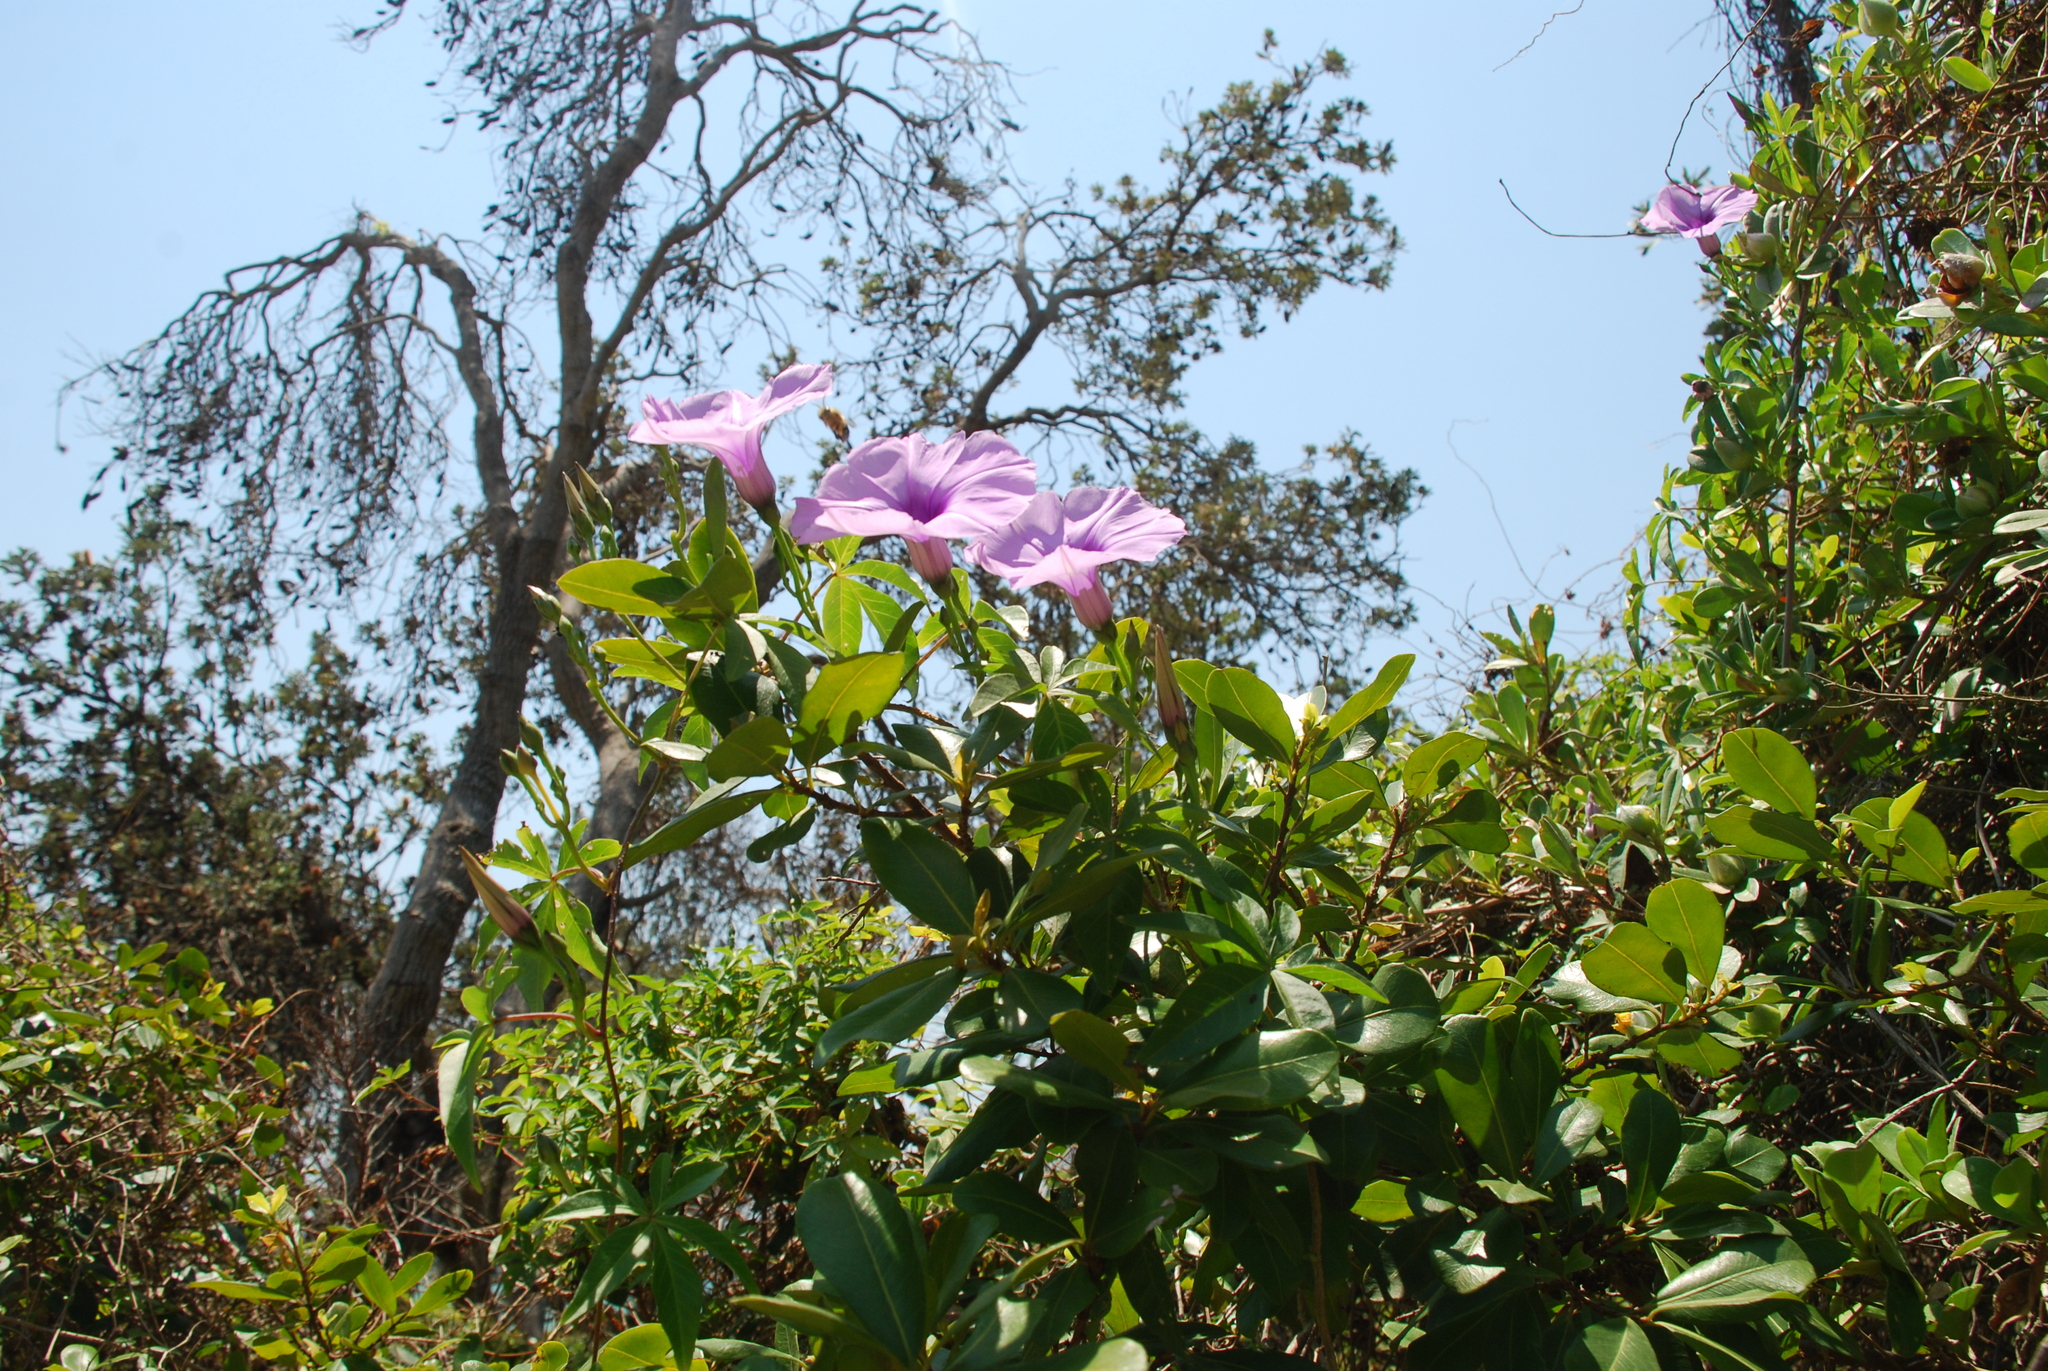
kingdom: Plantae
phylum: Tracheophyta
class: Magnoliopsida
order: Solanales
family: Convolvulaceae
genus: Ipomoea
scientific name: Ipomoea cairica
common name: Mile a minute vine
